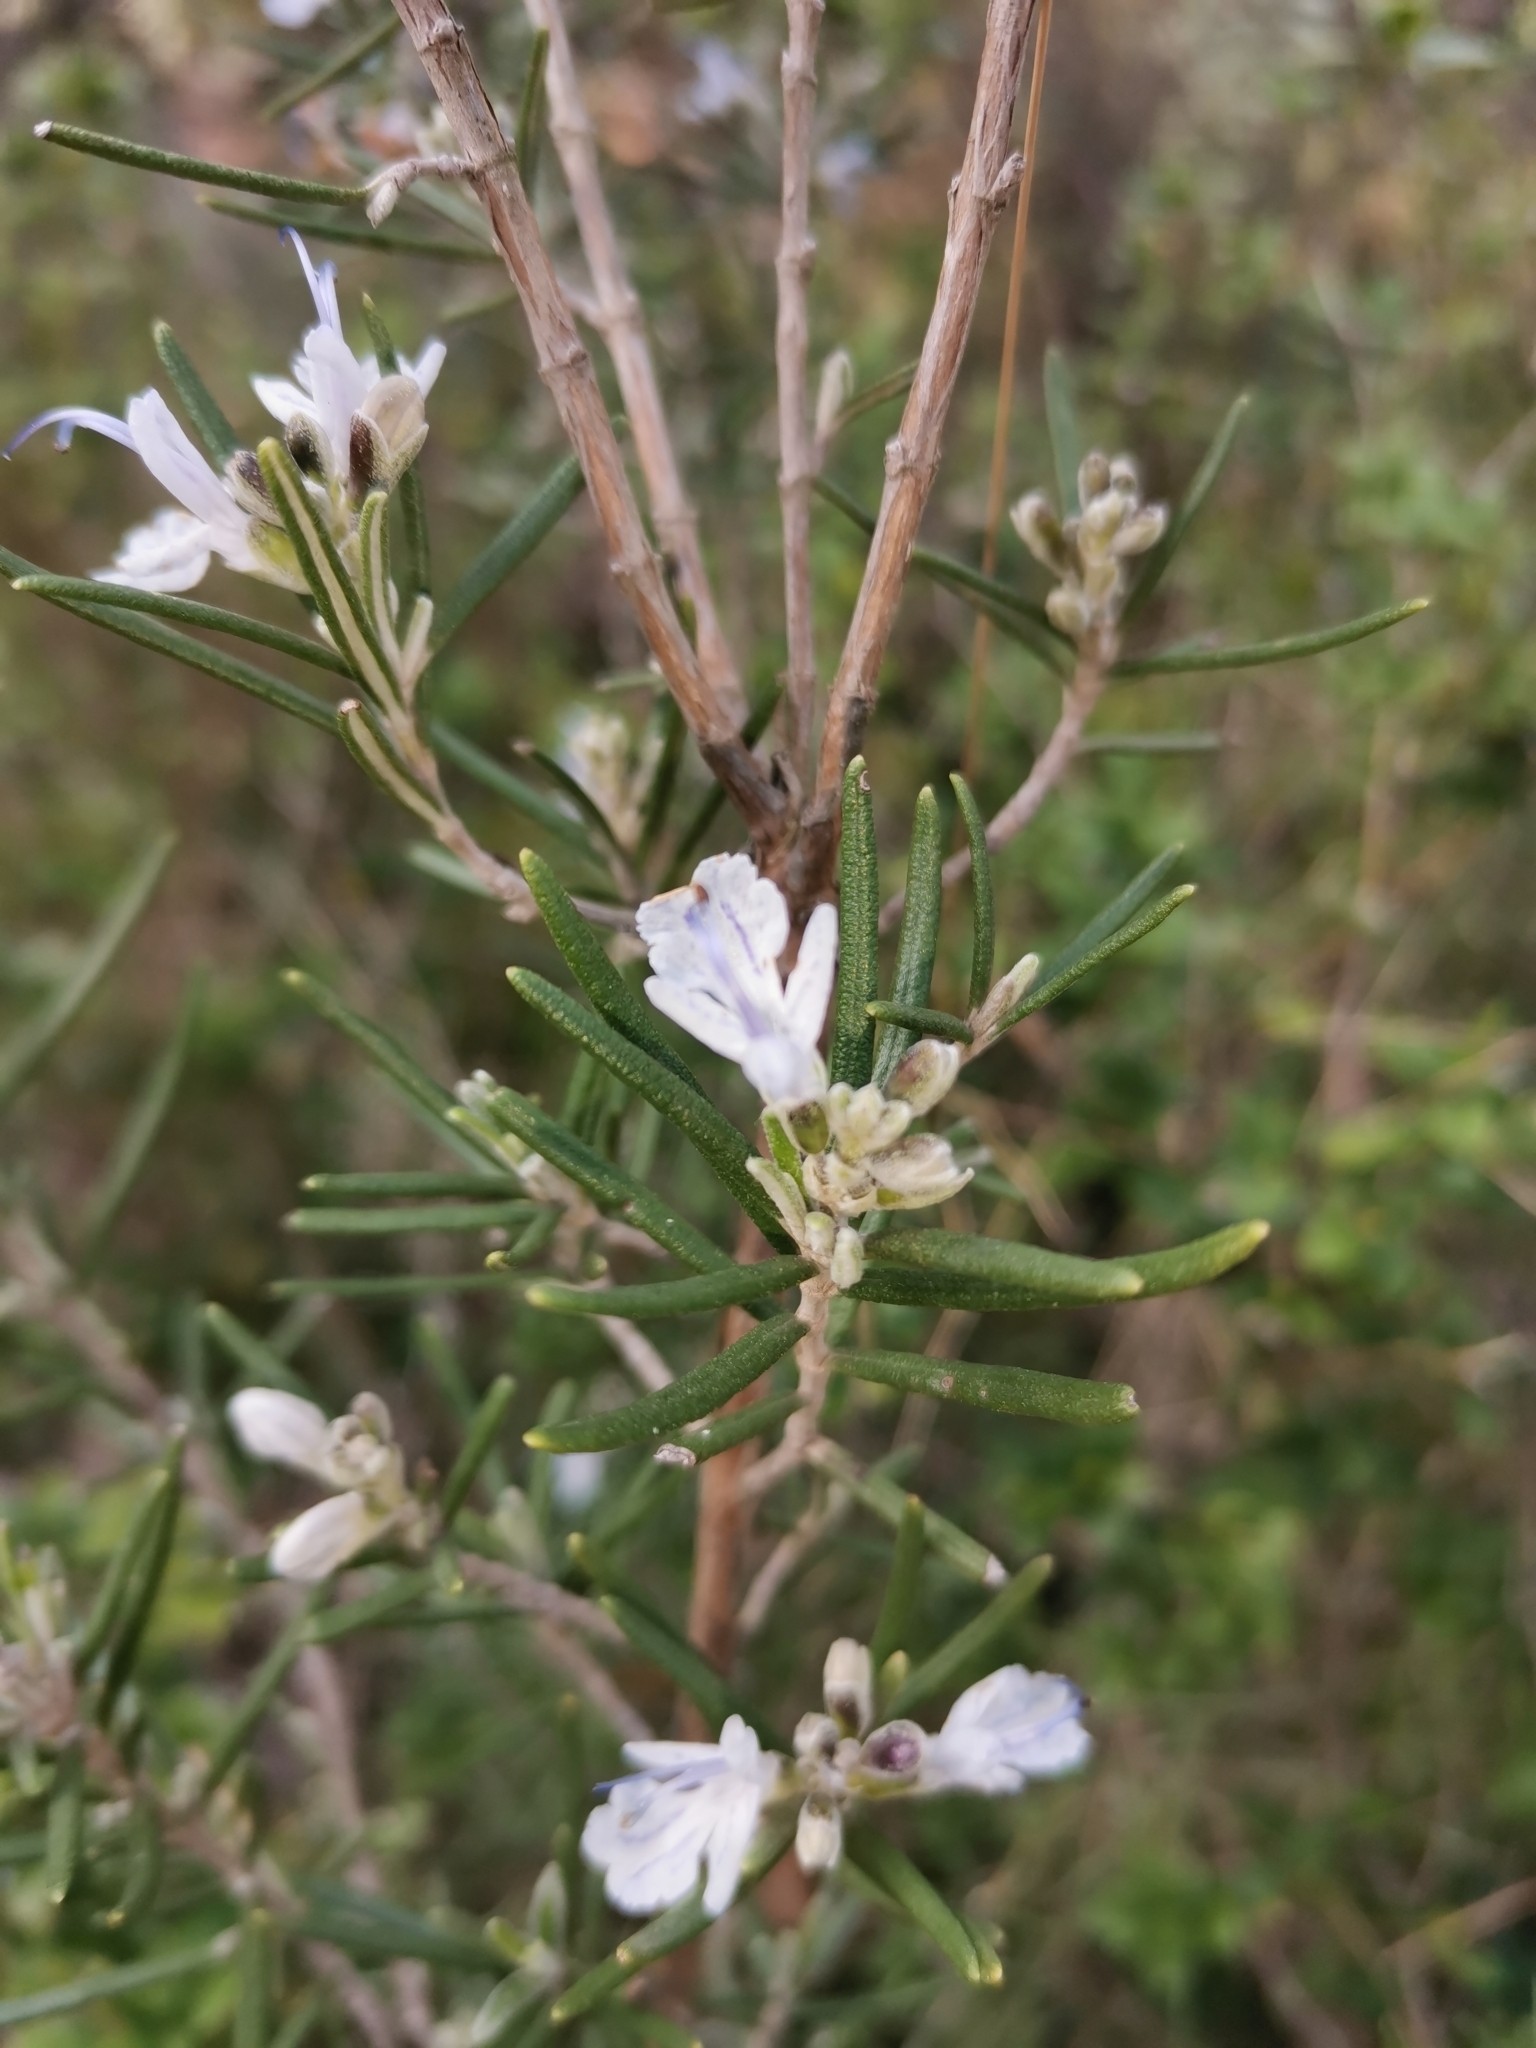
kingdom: Plantae
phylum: Tracheophyta
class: Magnoliopsida
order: Lamiales
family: Lamiaceae
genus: Salvia
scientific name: Salvia rosmarinus
